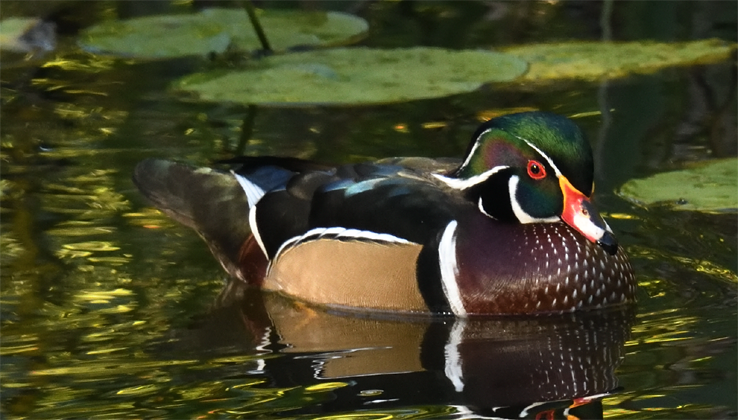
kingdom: Animalia
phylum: Chordata
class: Aves
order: Anseriformes
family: Anatidae
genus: Aix
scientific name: Aix sponsa
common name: Wood duck
